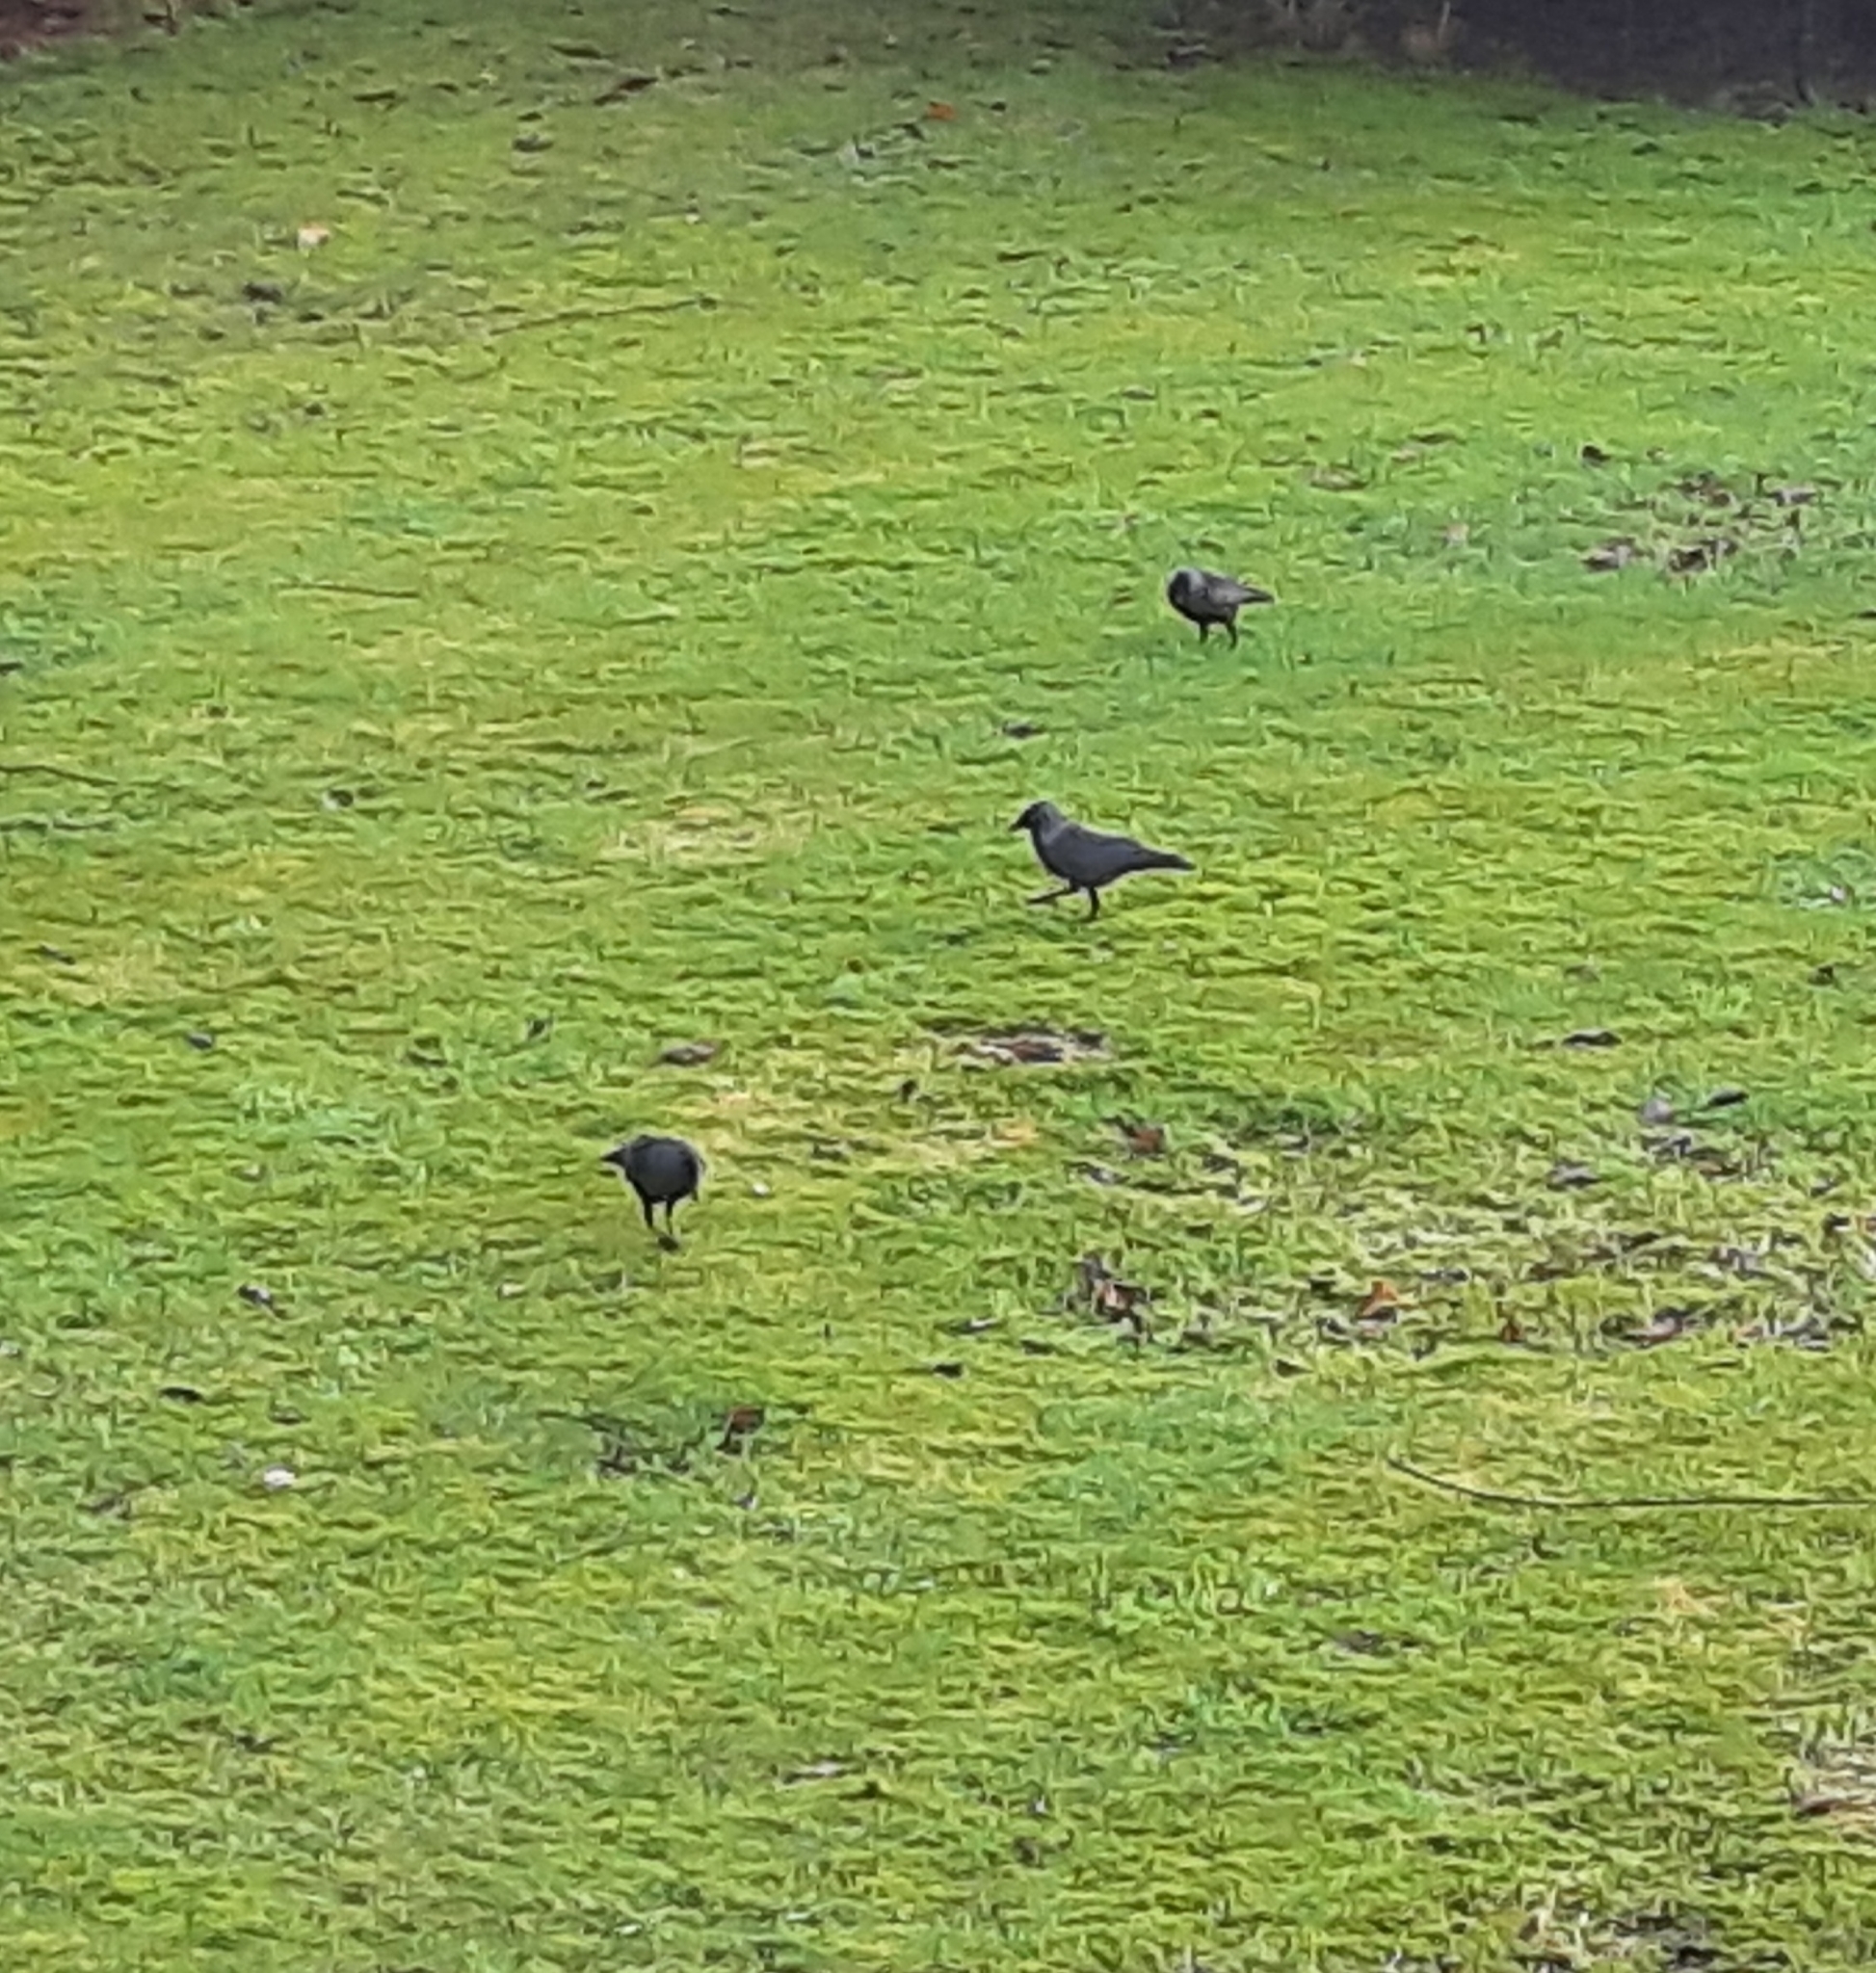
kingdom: Animalia
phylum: Chordata
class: Aves
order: Passeriformes
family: Corvidae
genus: Coloeus
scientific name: Coloeus monedula
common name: Western jackdaw
